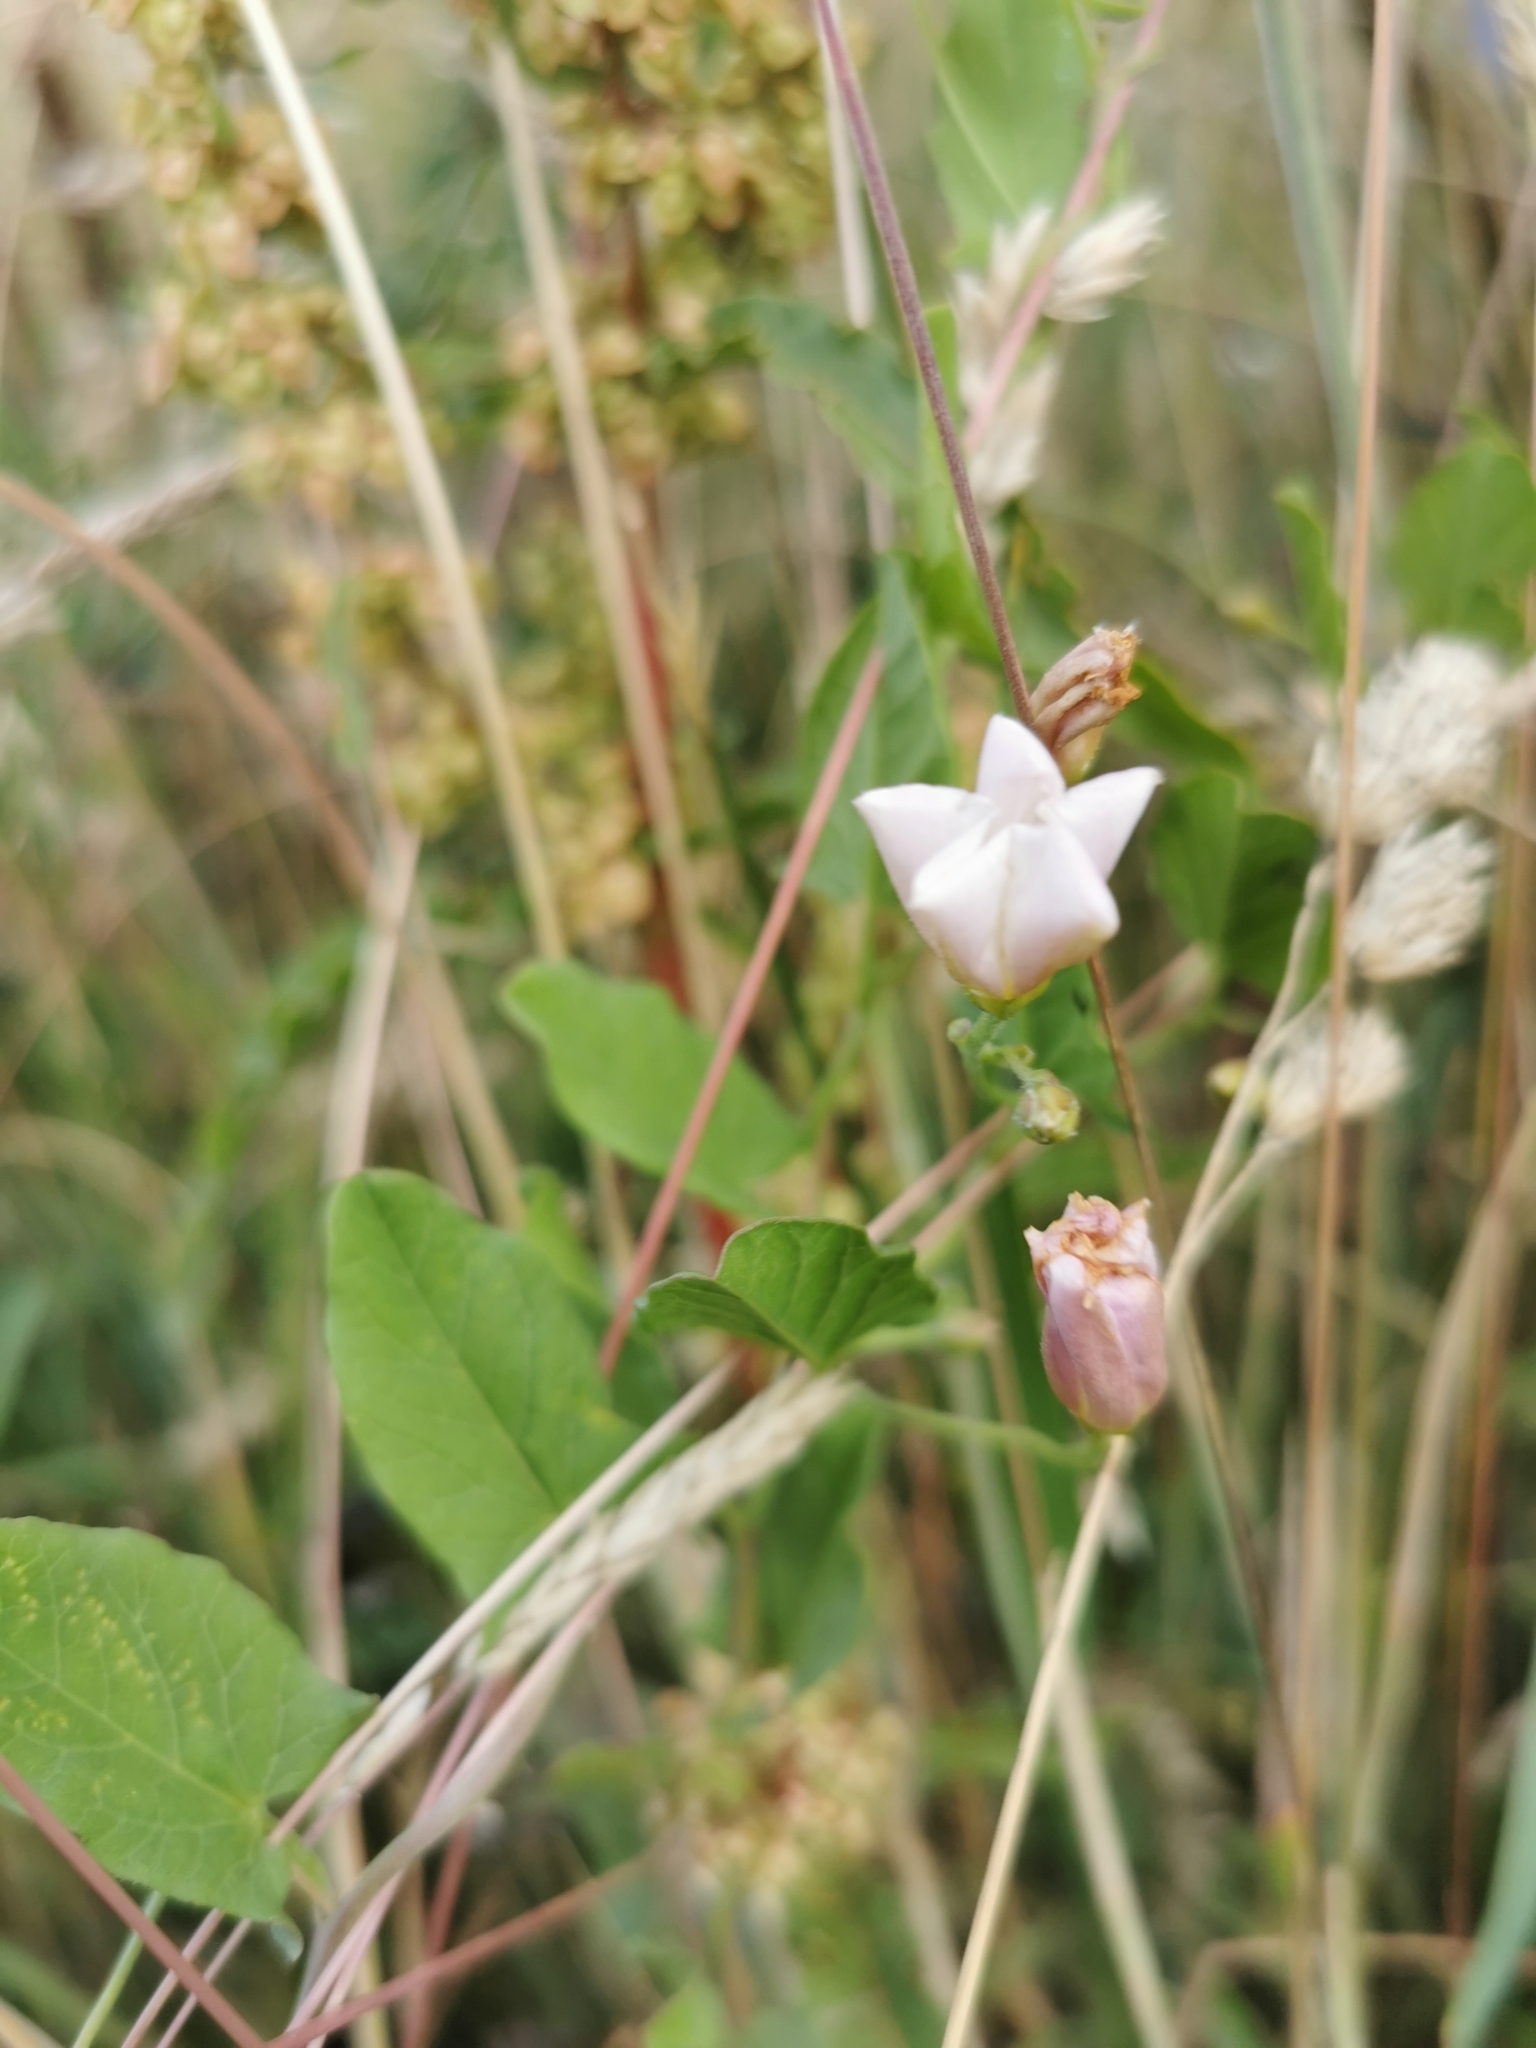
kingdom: Plantae
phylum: Tracheophyta
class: Magnoliopsida
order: Solanales
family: Convolvulaceae
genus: Convolvulus
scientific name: Convolvulus arvensis
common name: Field bindweed
